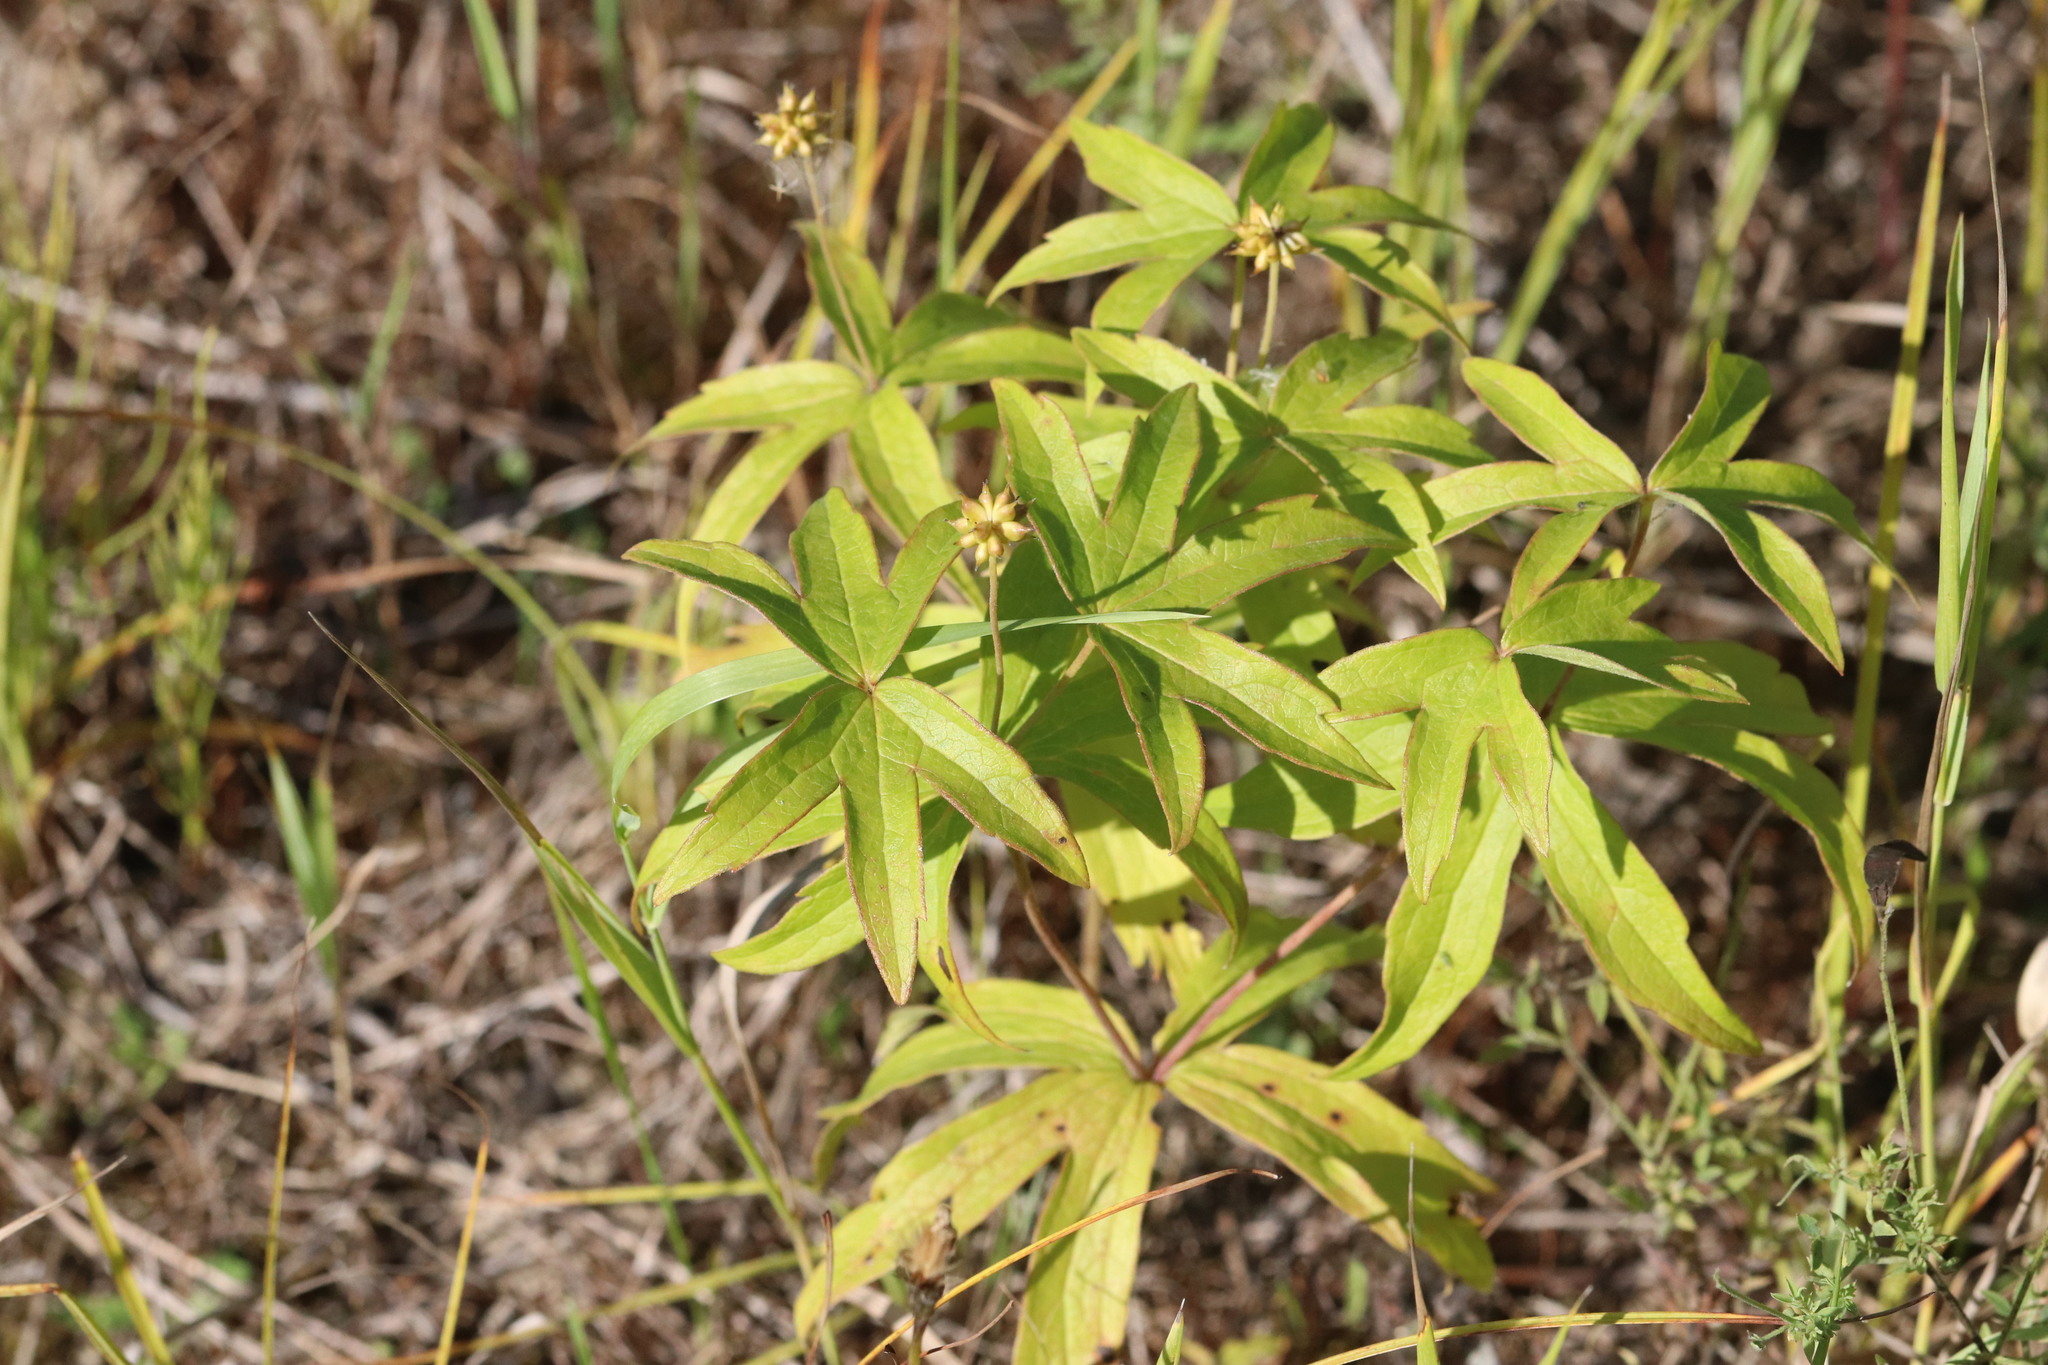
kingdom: Plantae
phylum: Tracheophyta
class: Magnoliopsida
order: Ranunculales
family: Ranunculaceae
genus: Anemonastrum
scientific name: Anemonastrum dichotomum
